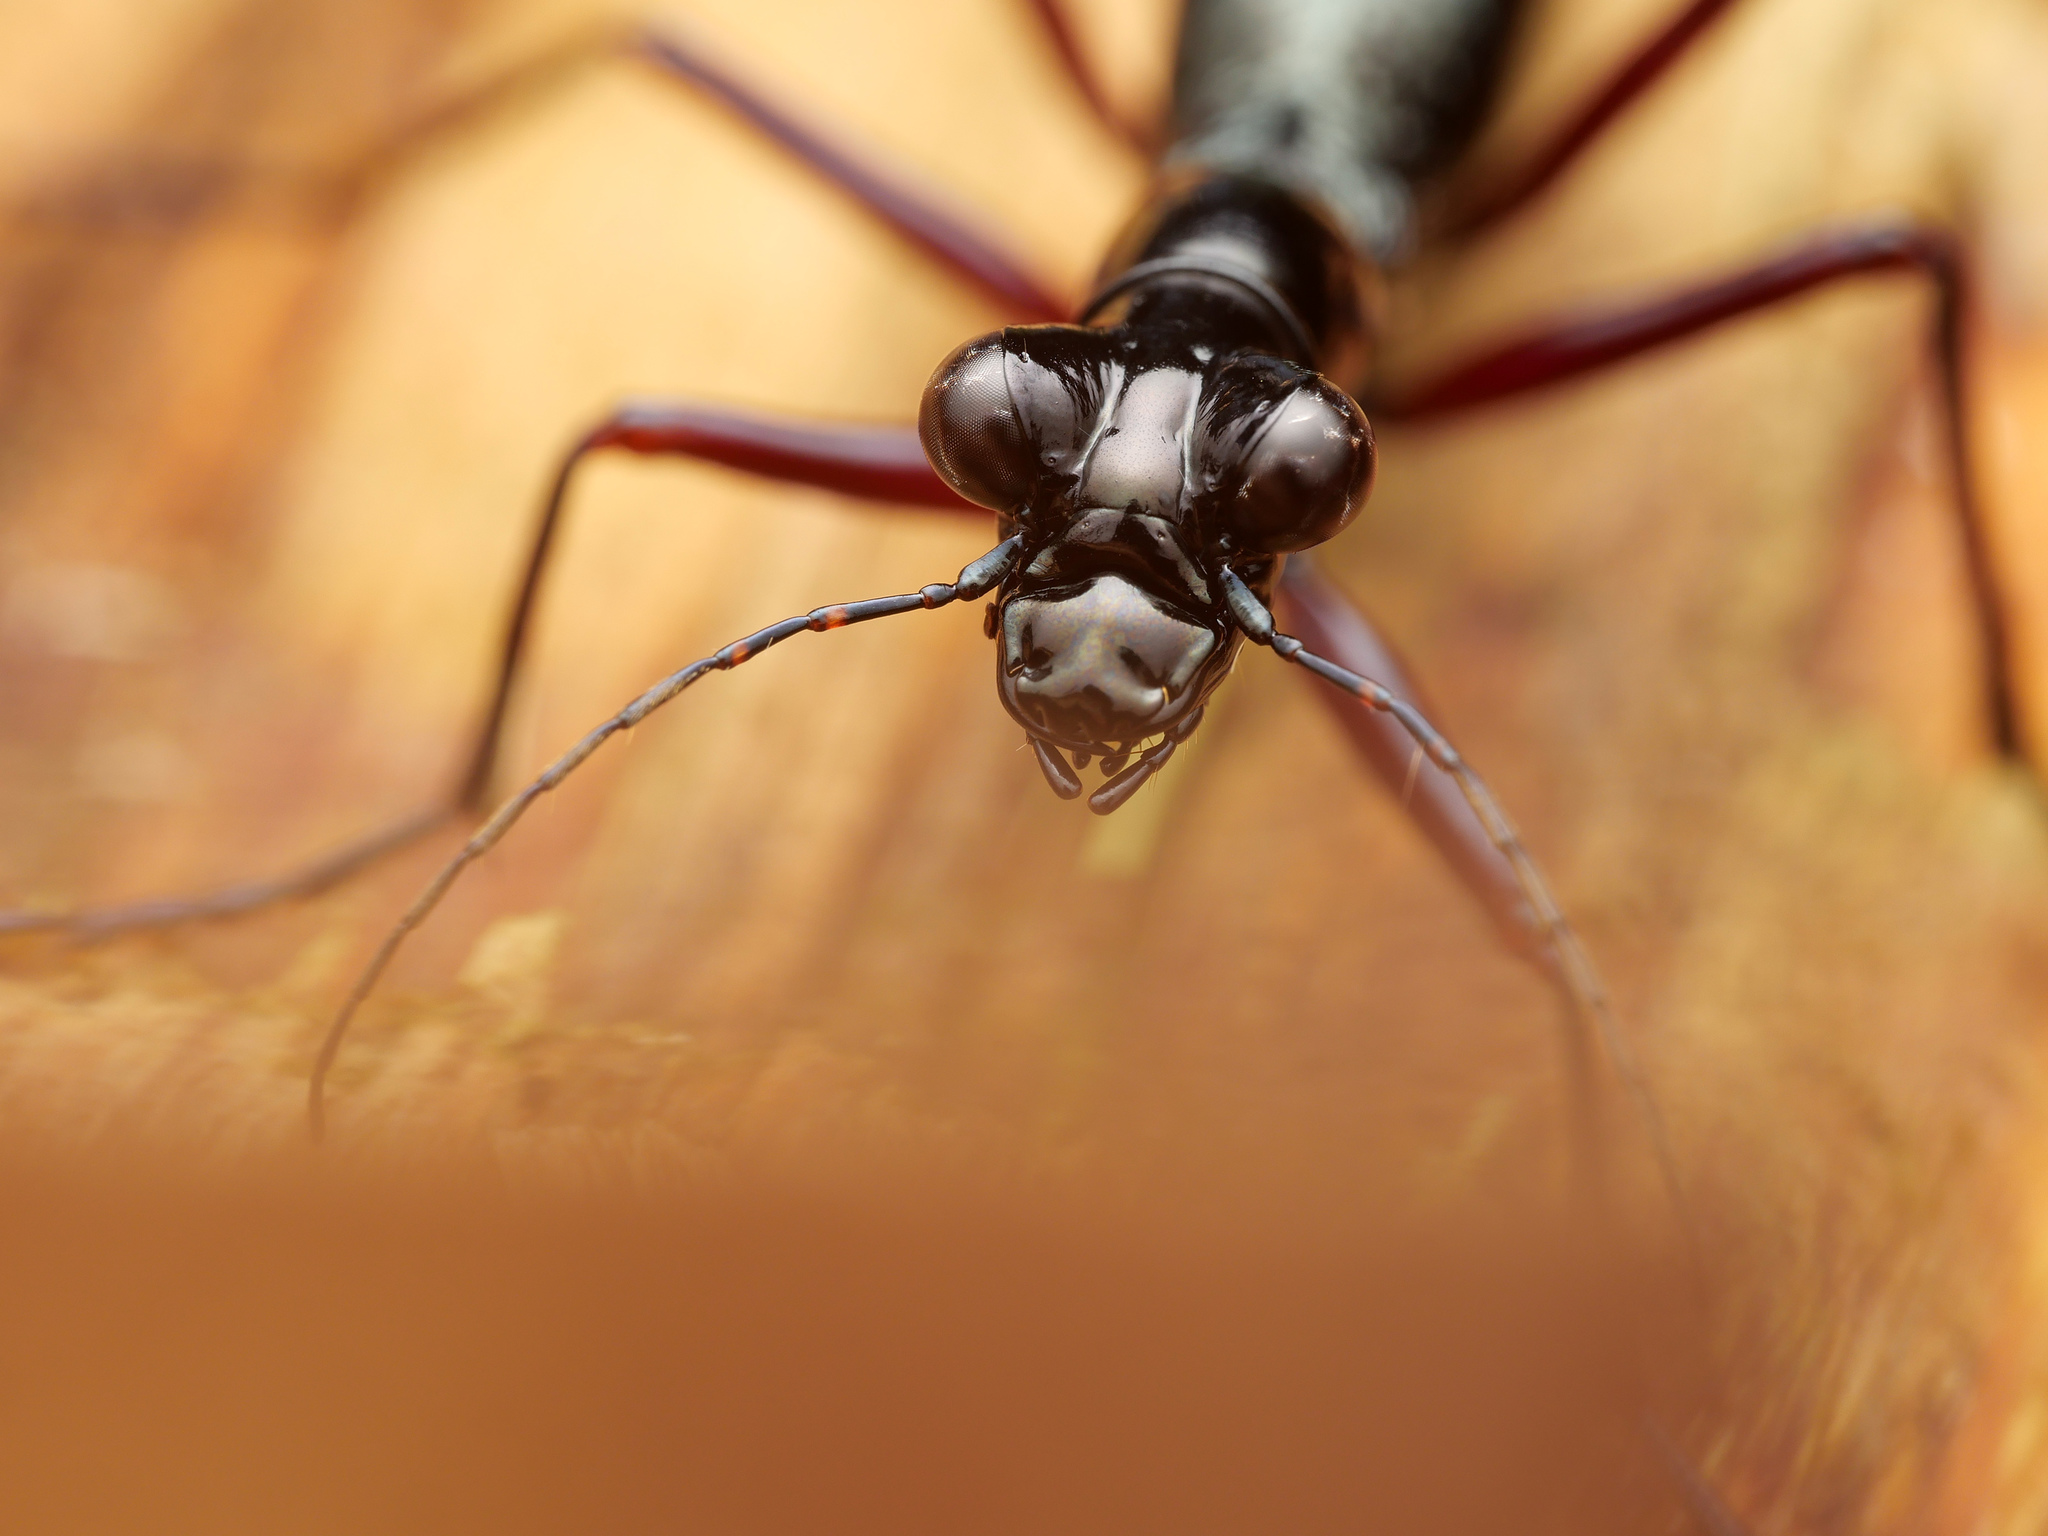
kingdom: Animalia
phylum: Arthropoda
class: Insecta
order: Coleoptera
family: Carabidae
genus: Tricondyla
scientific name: Tricondyla aptera
